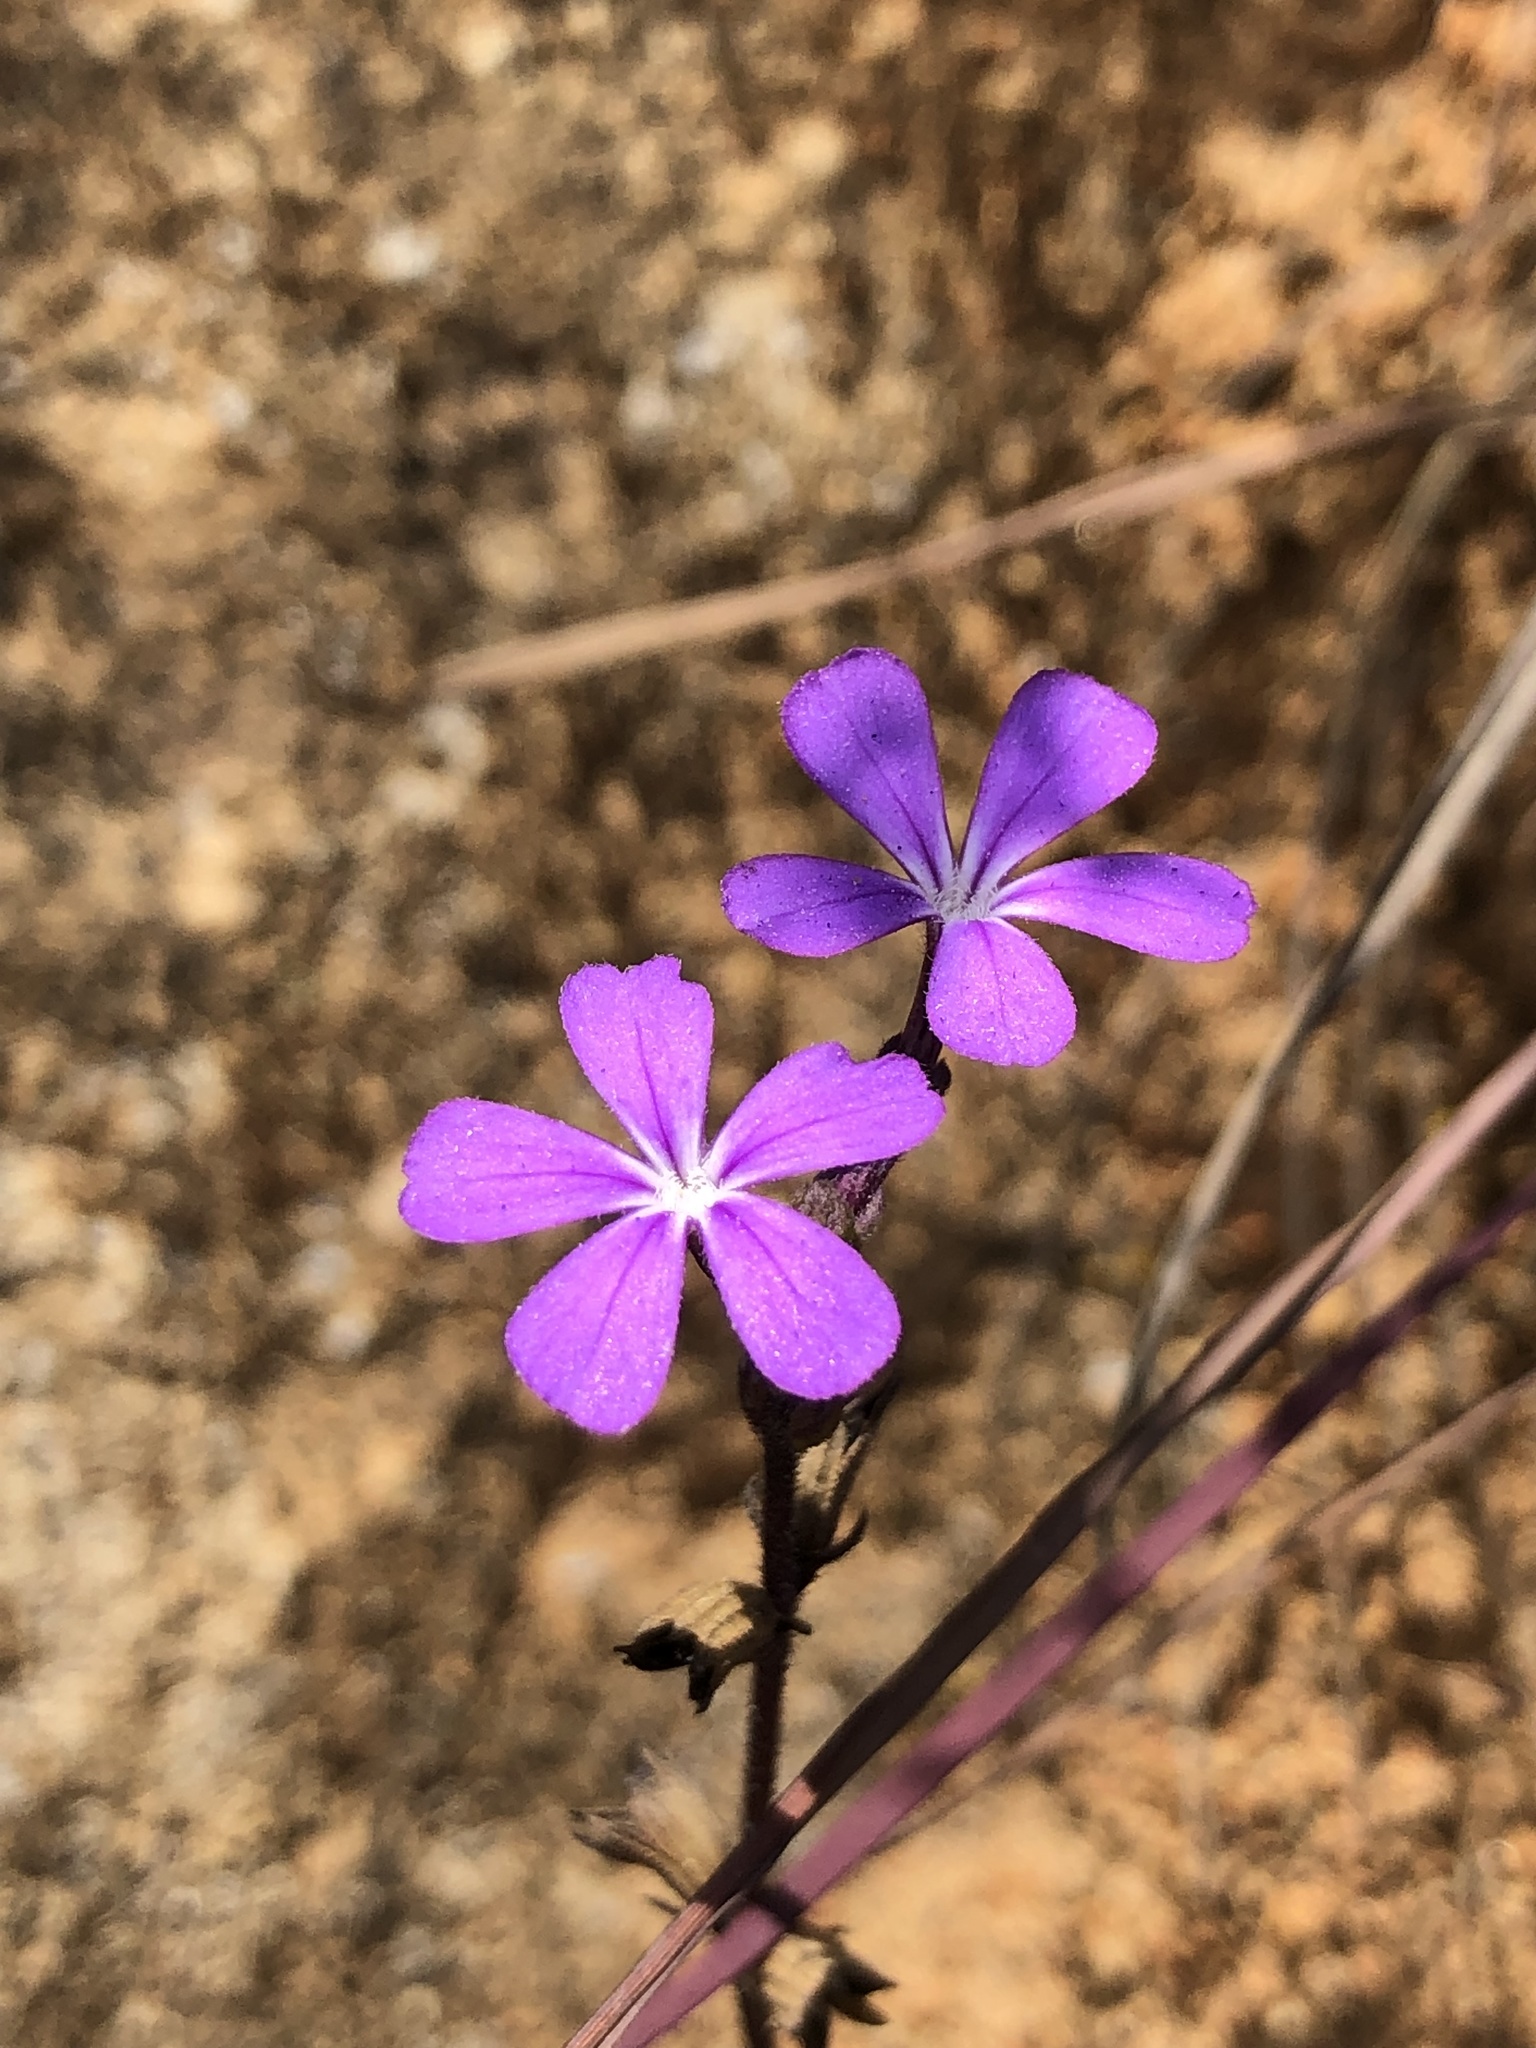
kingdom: Plantae
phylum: Tracheophyta
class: Magnoliopsida
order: Lamiales
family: Orobanchaceae
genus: Buchnera
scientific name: Buchnera obliqua
